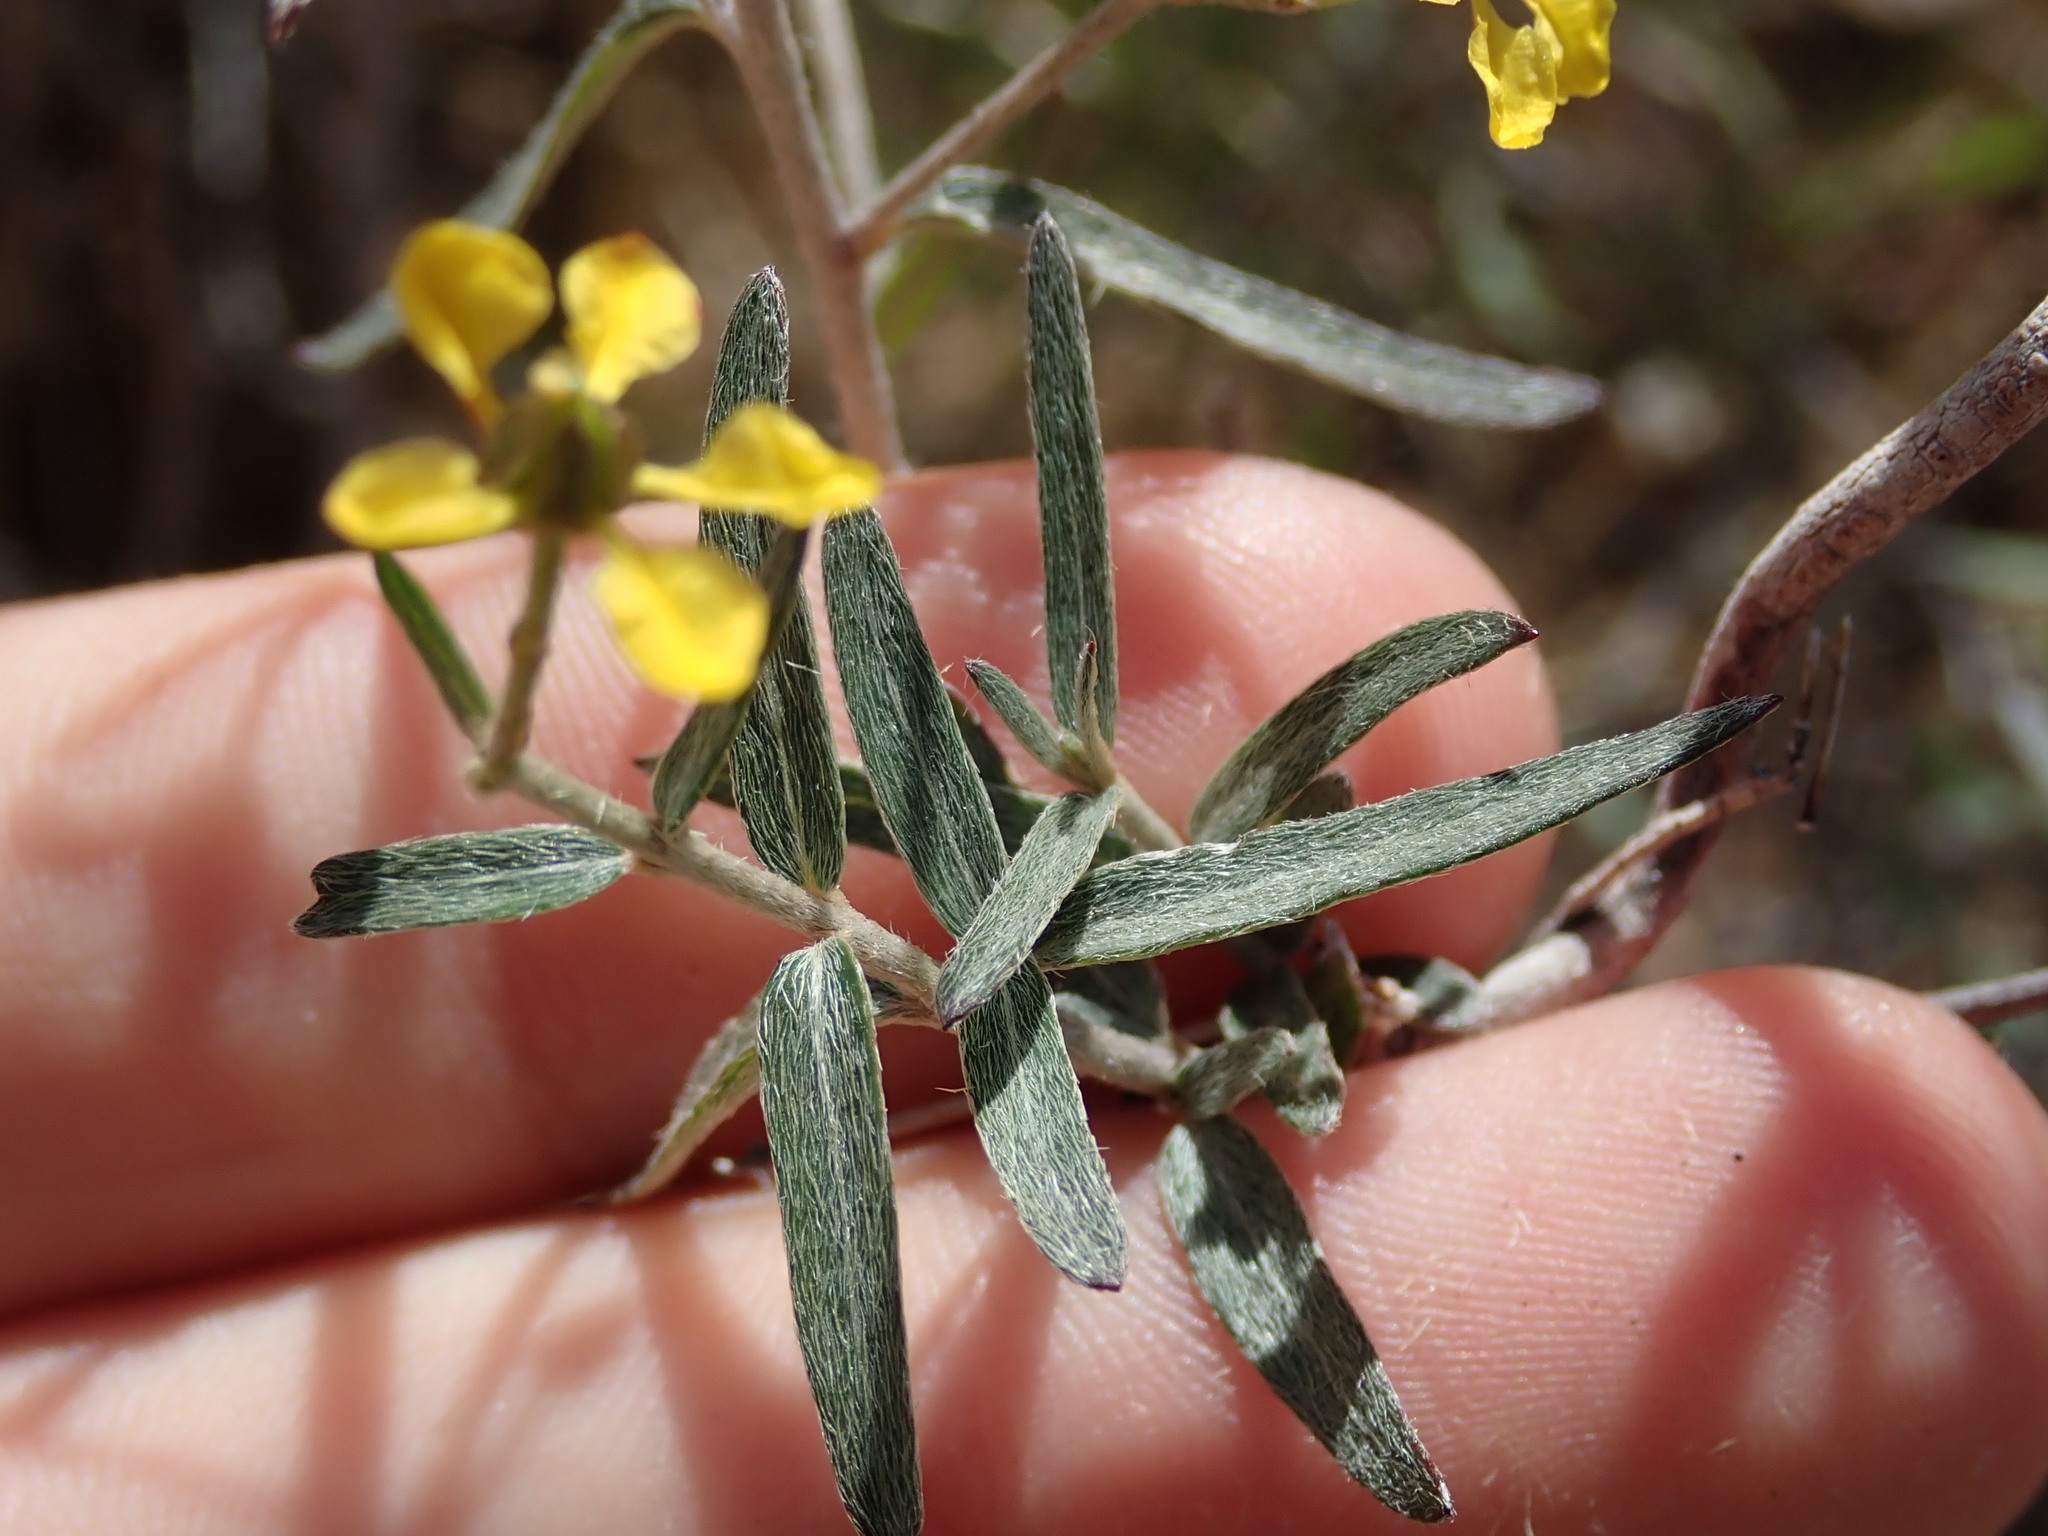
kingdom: Plantae
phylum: Tracheophyta
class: Magnoliopsida
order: Malpighiales
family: Malpighiaceae
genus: Cottsia
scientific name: Cottsia gracilis
